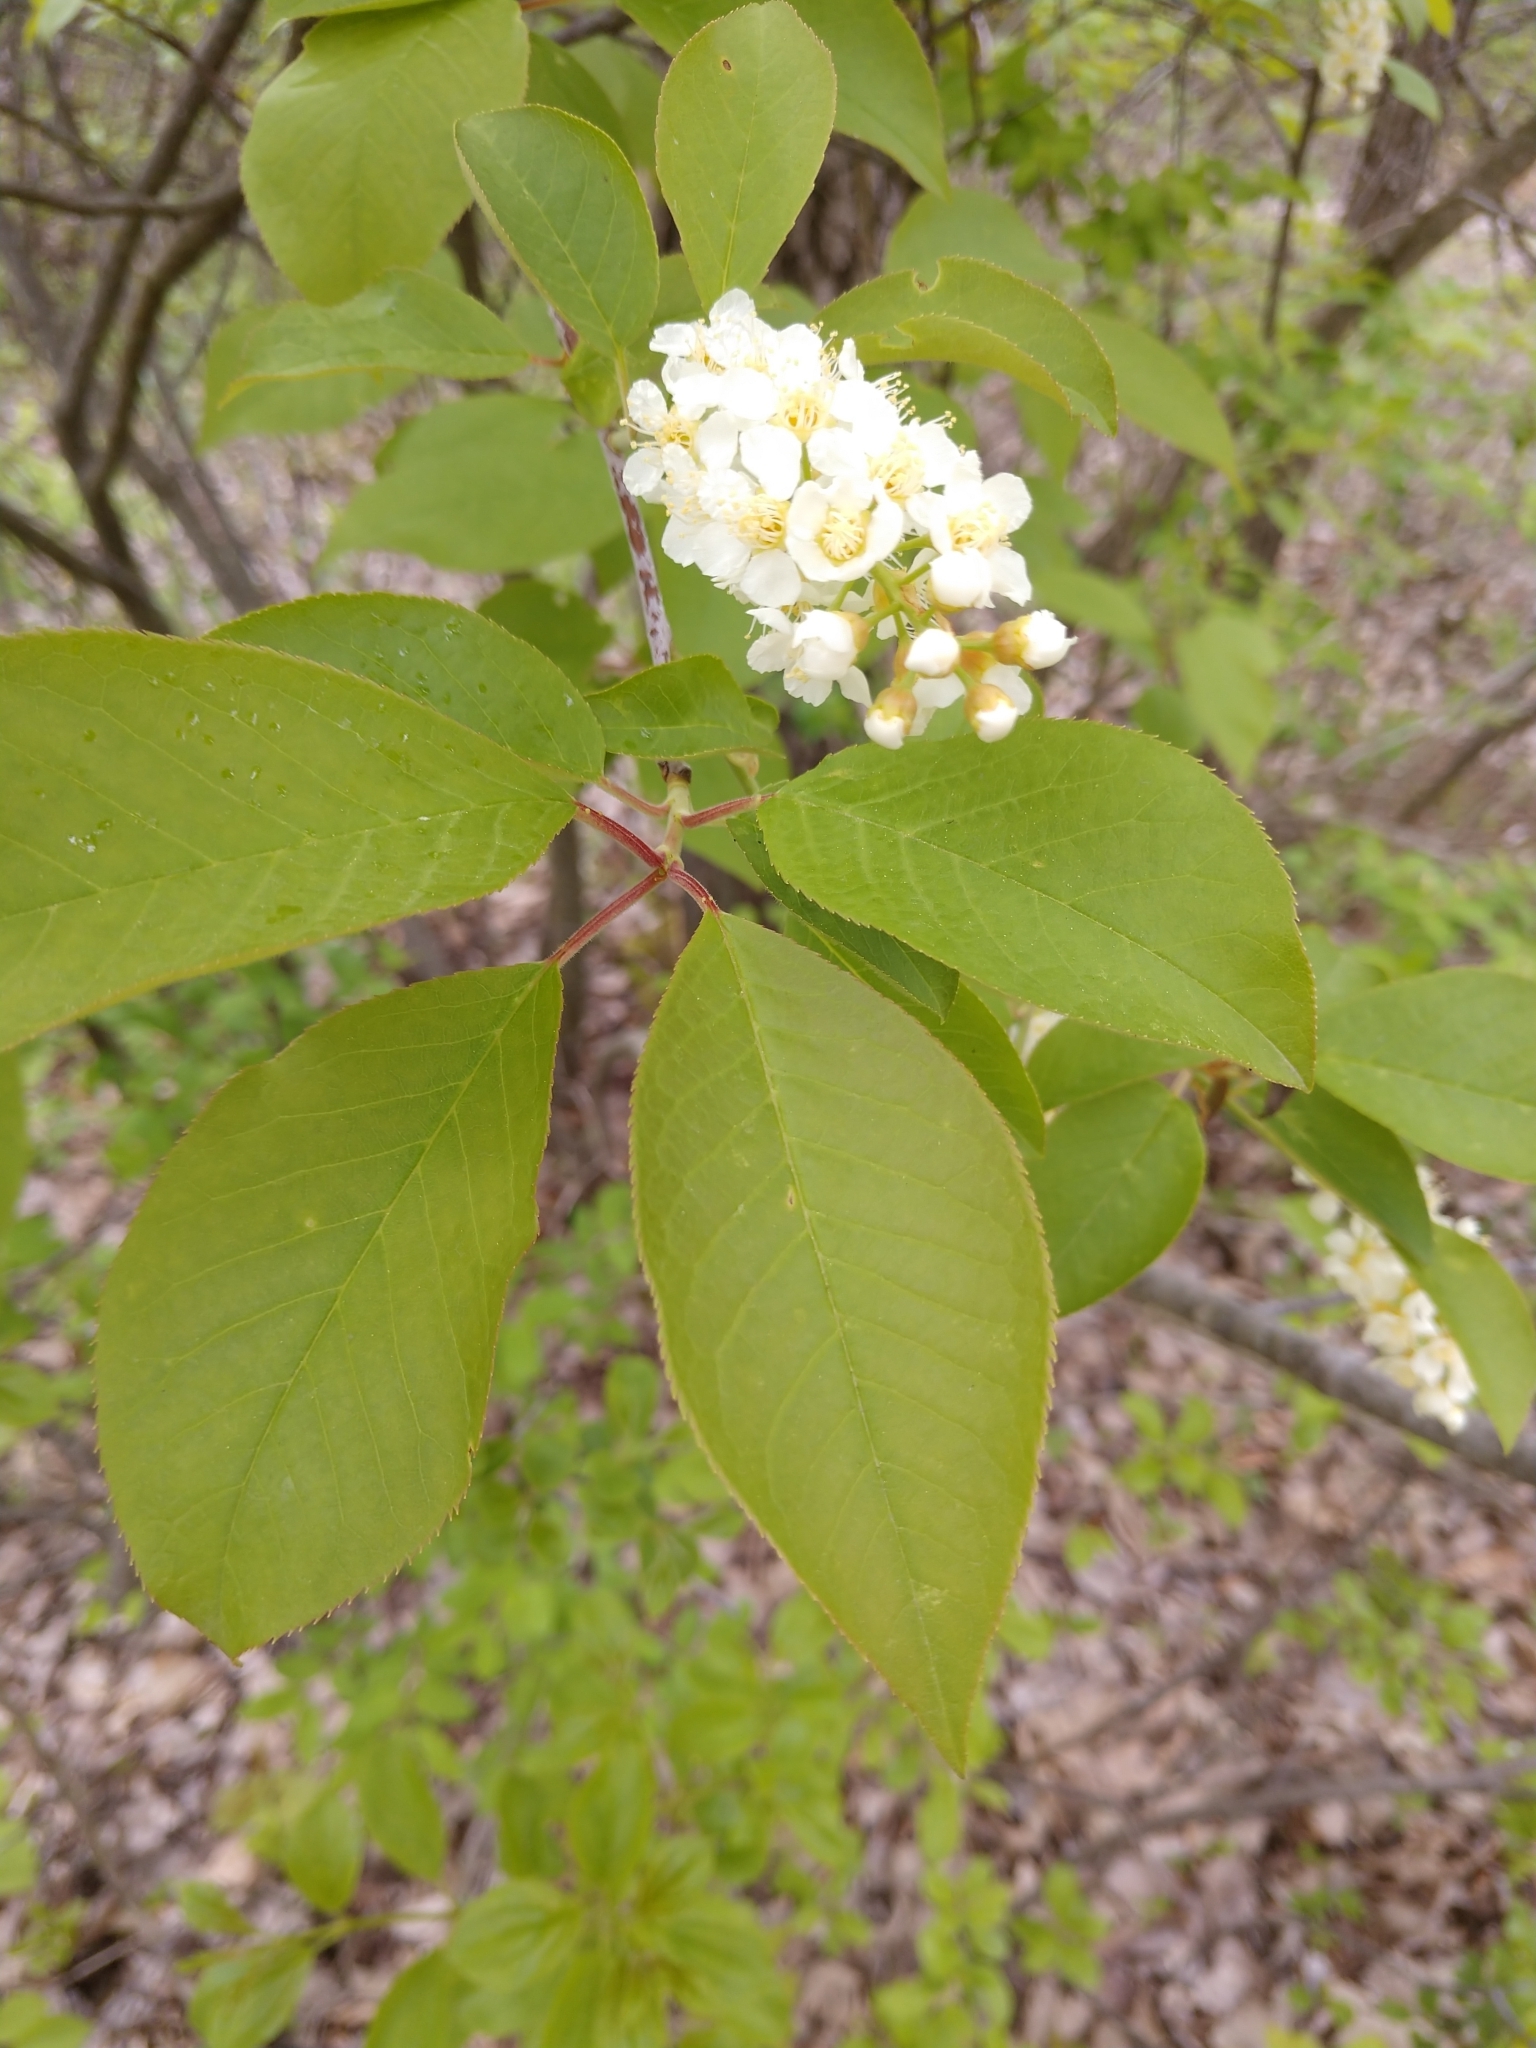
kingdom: Plantae
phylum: Tracheophyta
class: Magnoliopsida
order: Rosales
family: Rosaceae
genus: Prunus
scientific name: Prunus virginiana
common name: Chokecherry
